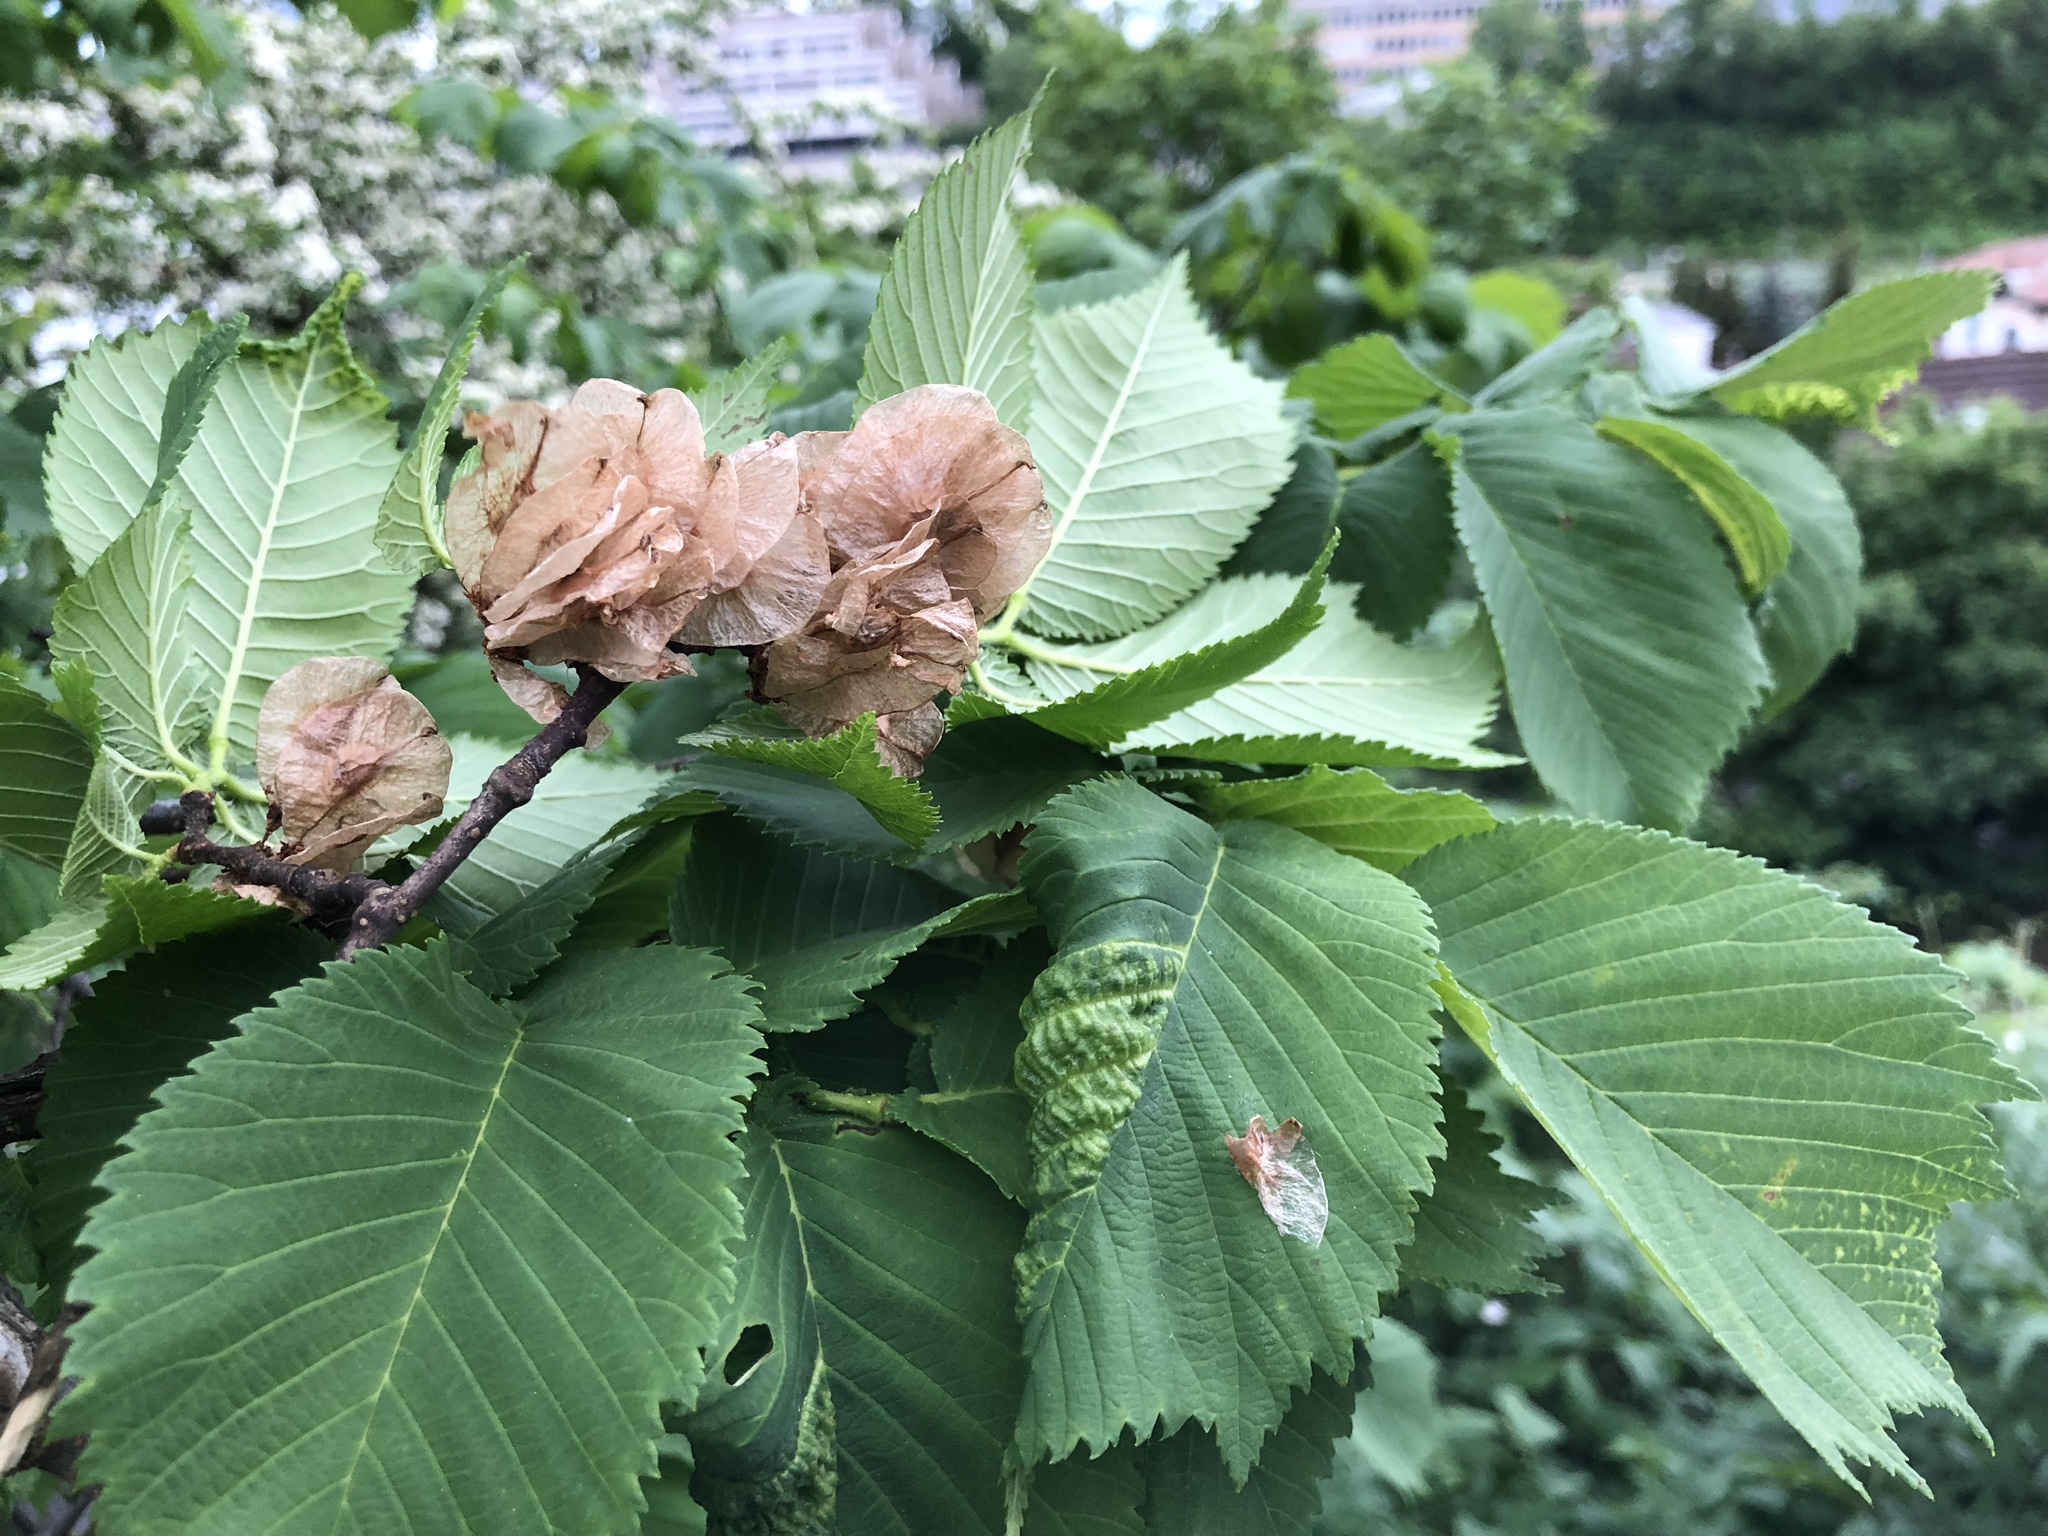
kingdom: Plantae
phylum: Tracheophyta
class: Magnoliopsida
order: Rosales
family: Ulmaceae
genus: Ulmus
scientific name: Ulmus glabra
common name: Wych elm
